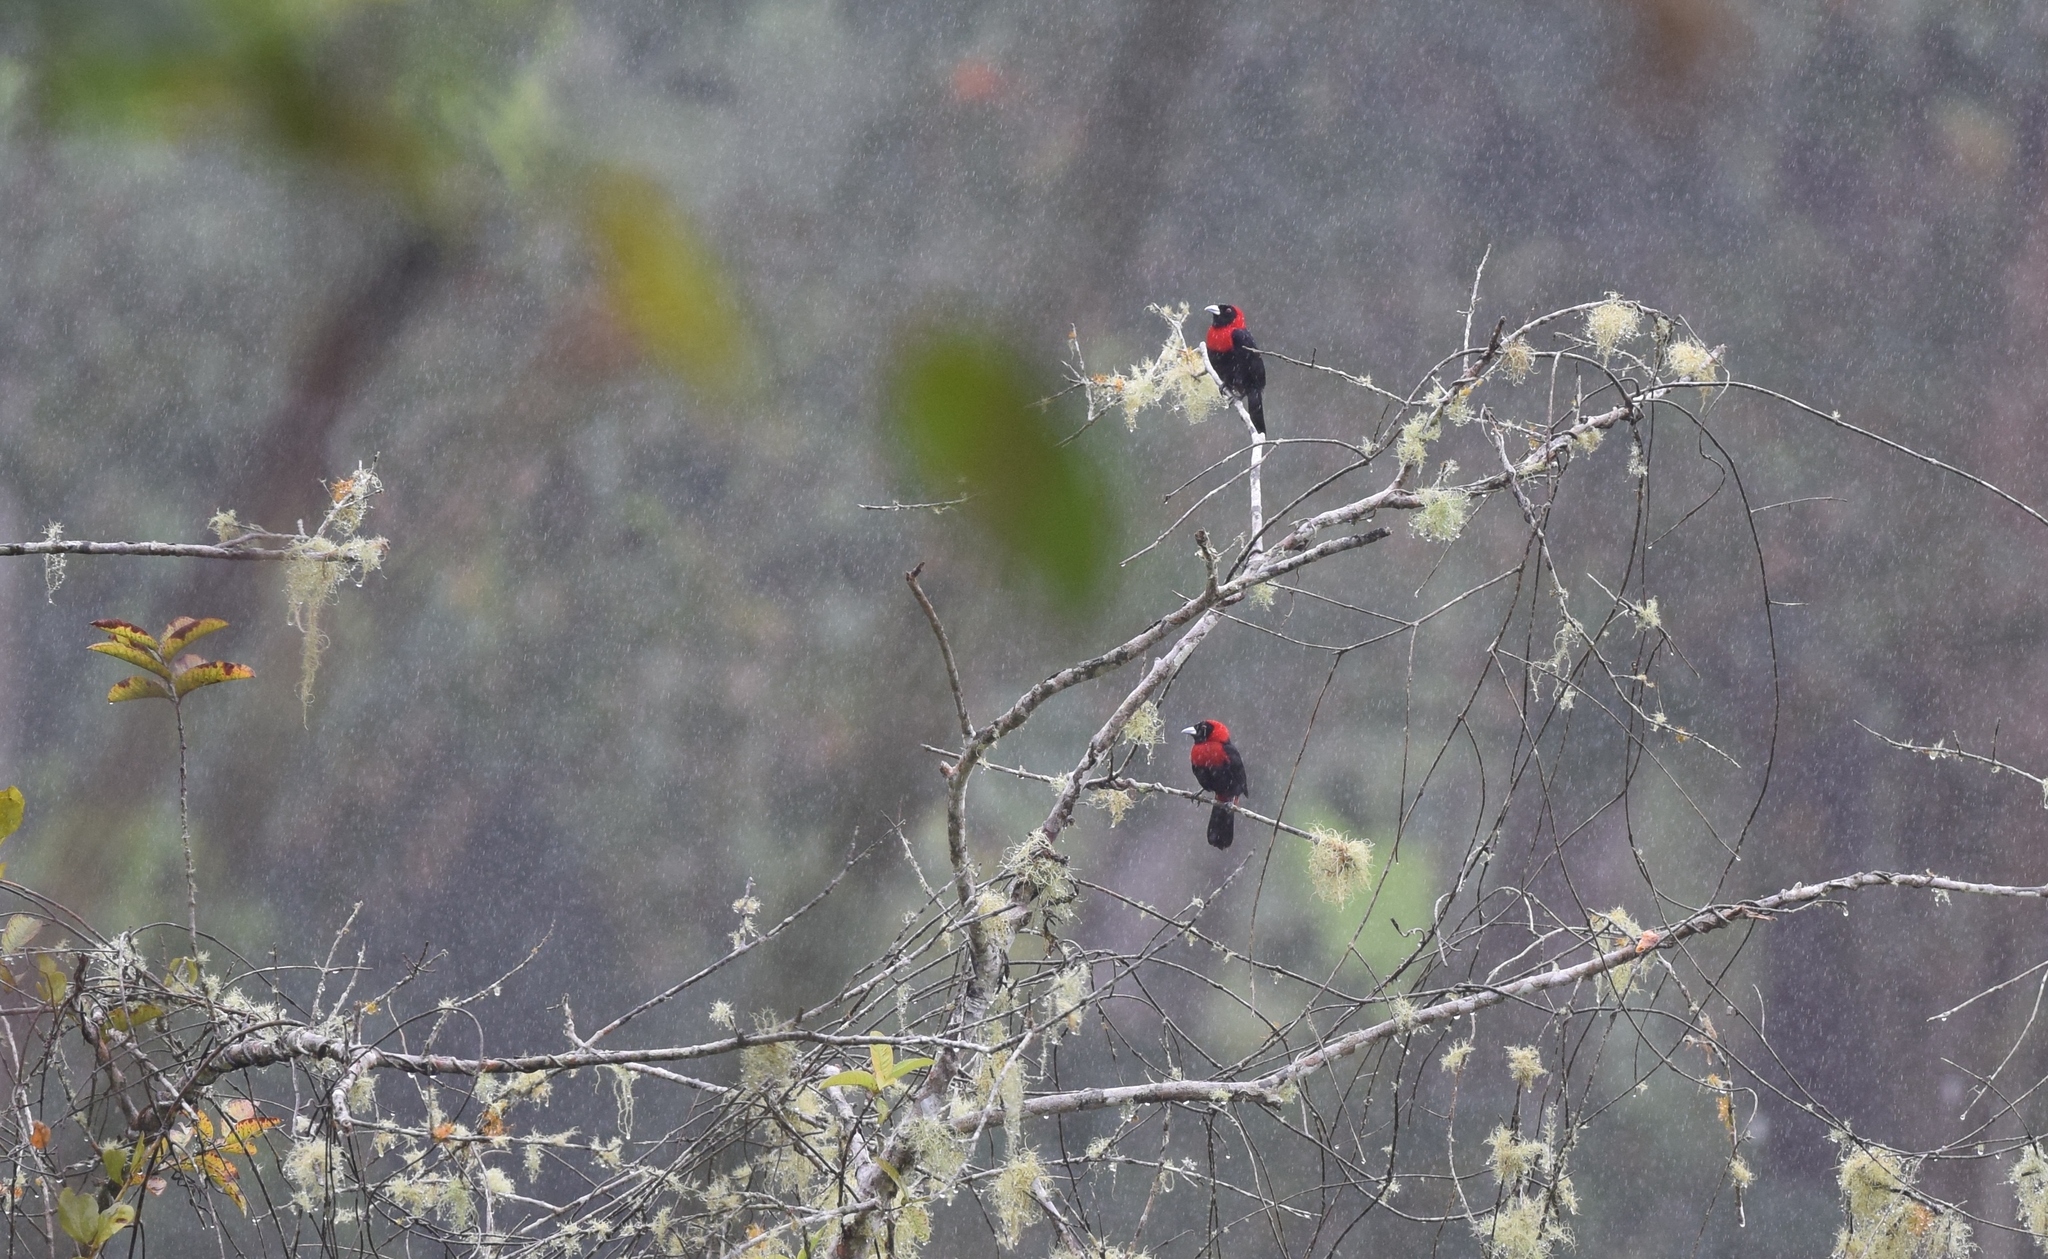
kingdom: Animalia
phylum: Chordata
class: Aves
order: Passeriformes
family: Thraupidae
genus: Ramphocelus
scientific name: Ramphocelus sanguinolentus
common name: Crimson-collared tanager
